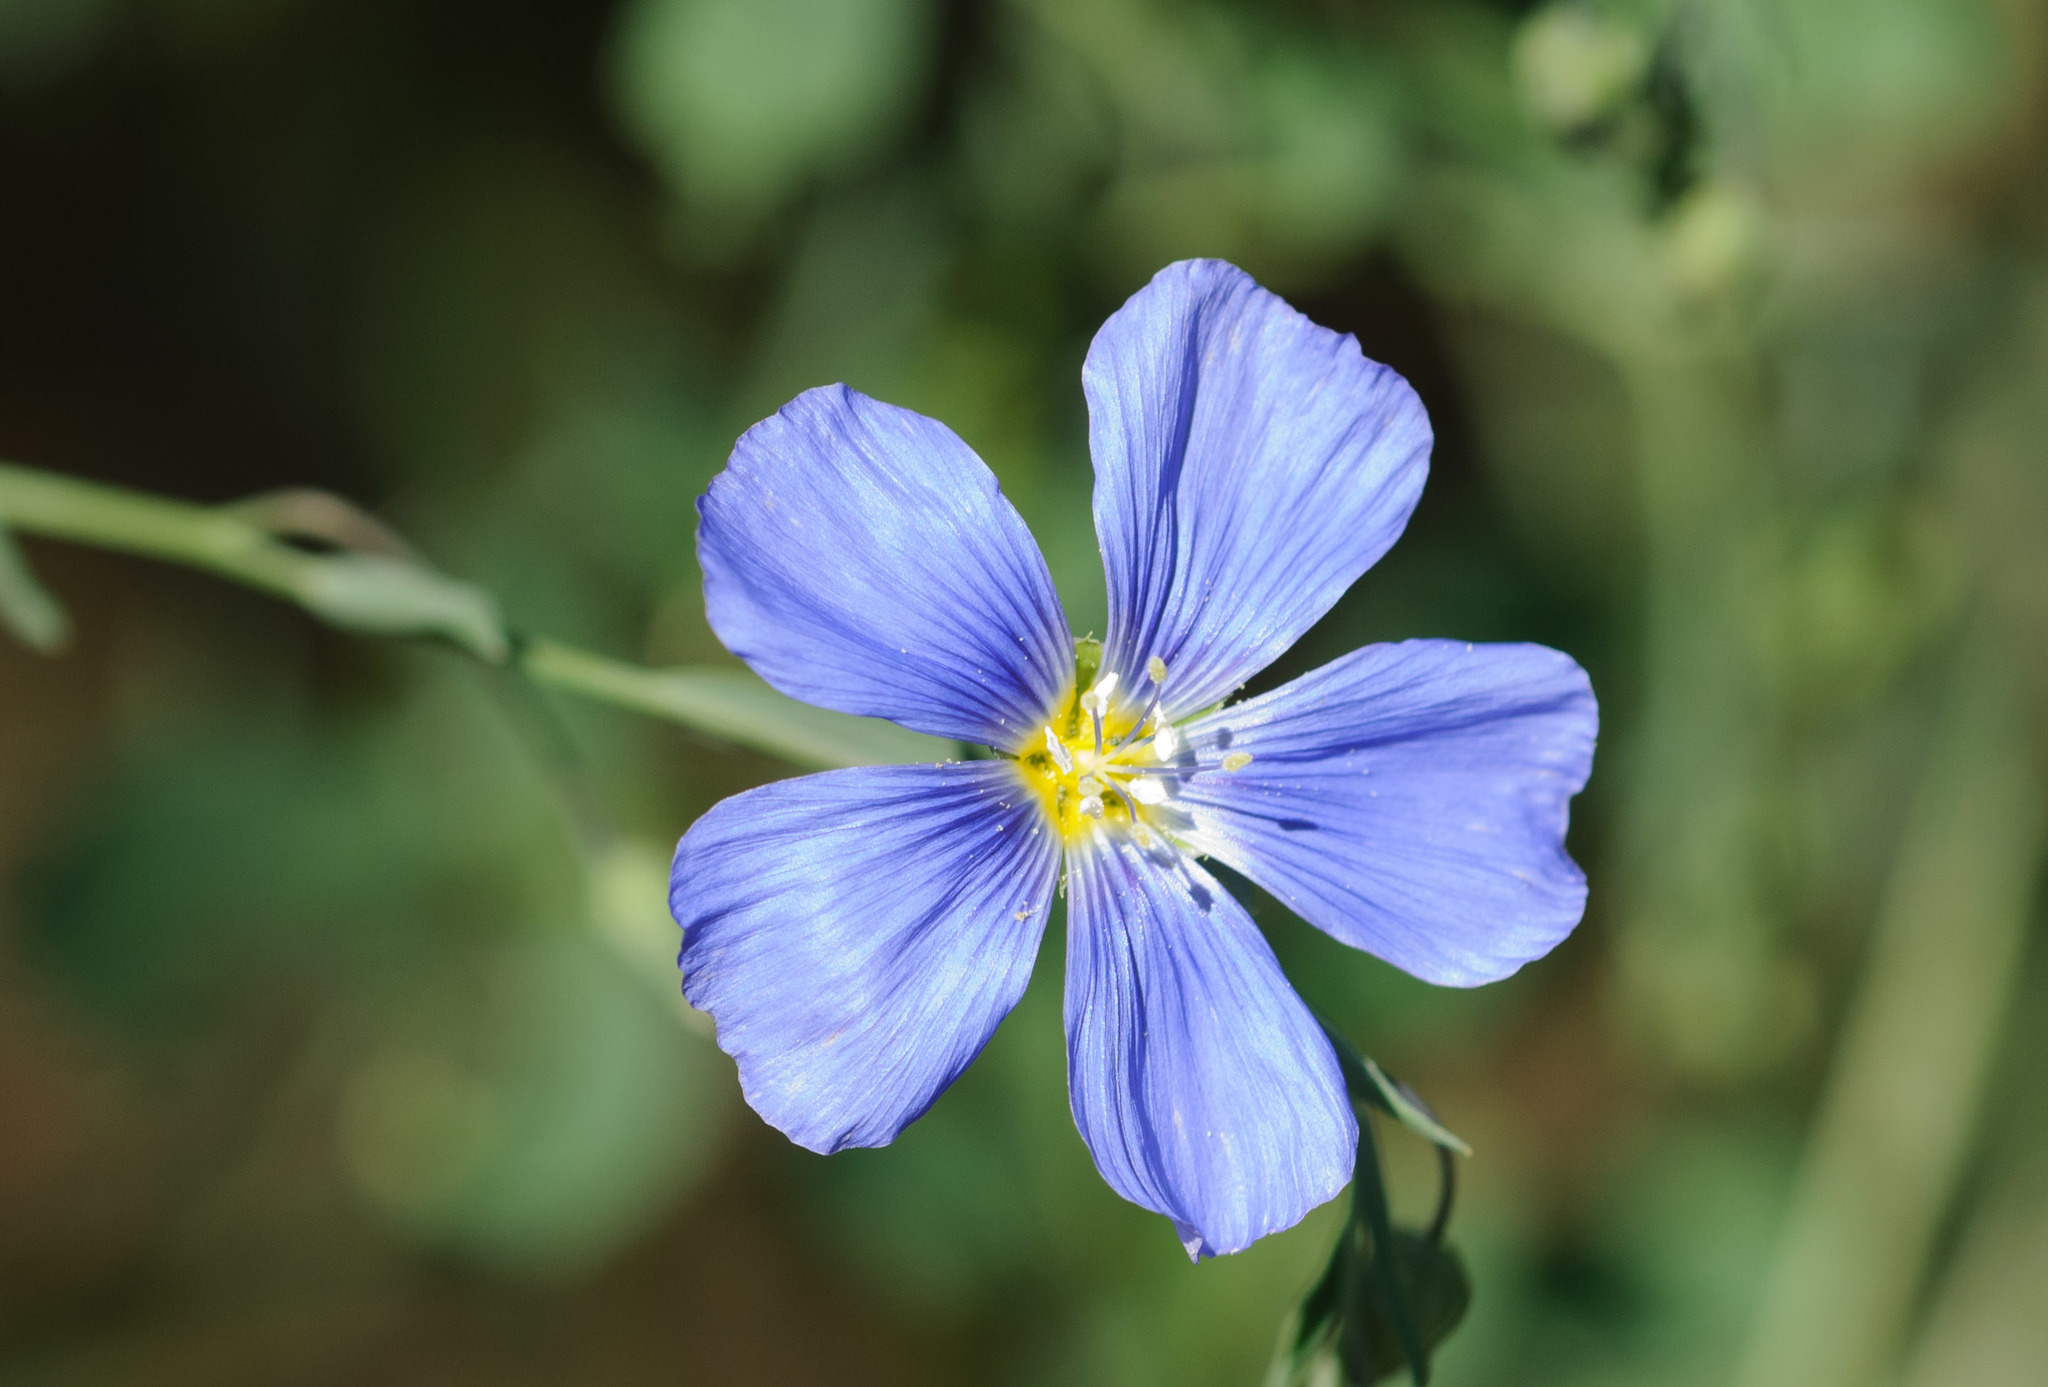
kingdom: Plantae
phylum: Tracheophyta
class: Magnoliopsida
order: Malpighiales
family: Linaceae
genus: Linum
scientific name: Linum perenne
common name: Blue flax
